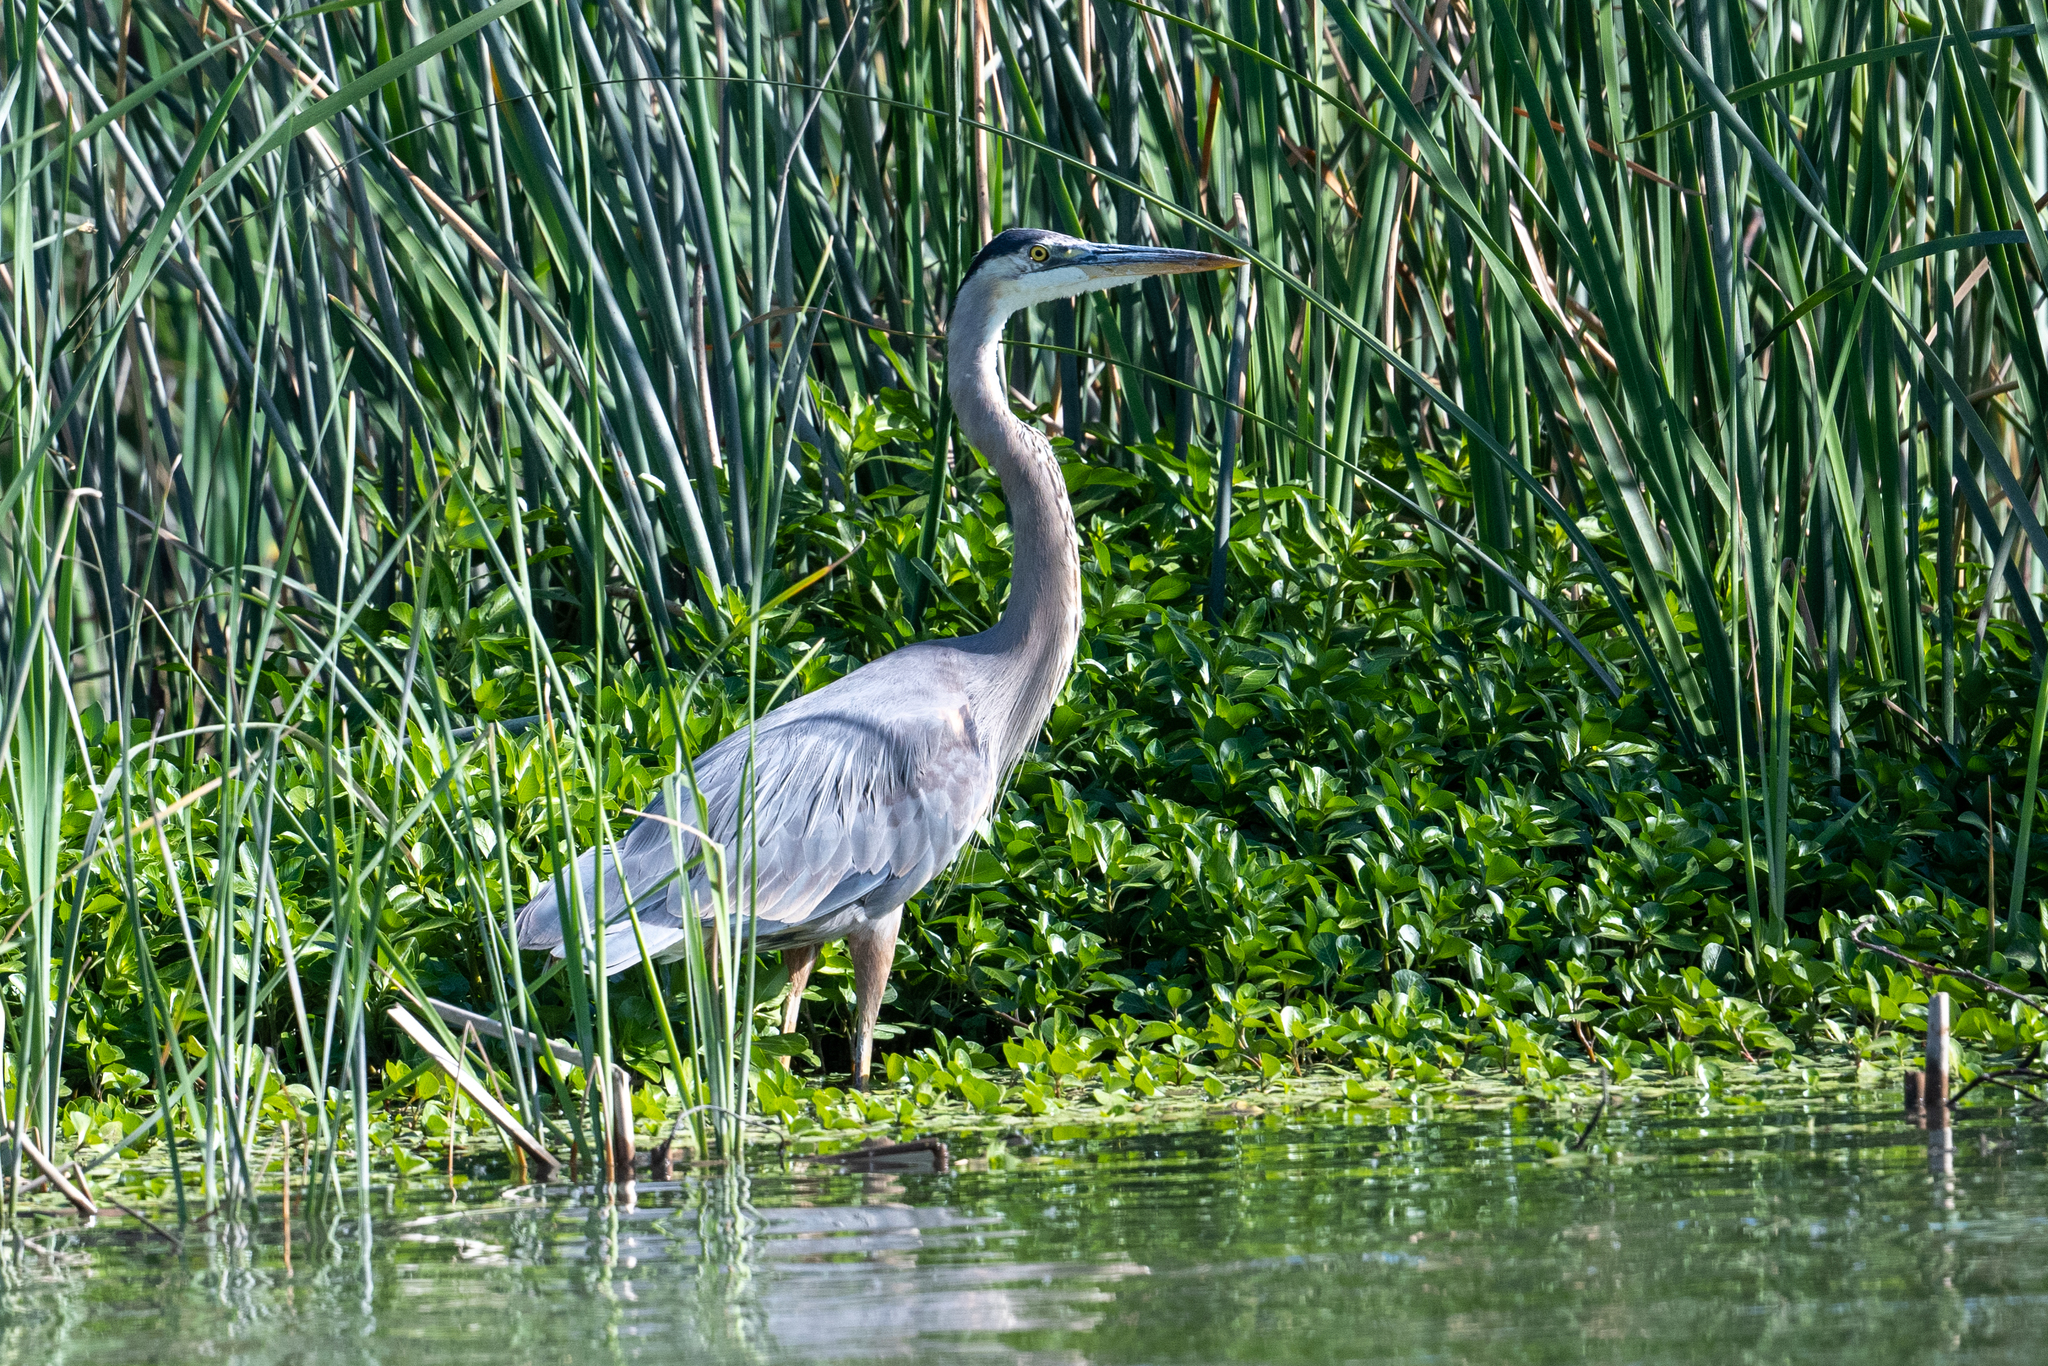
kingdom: Animalia
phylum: Chordata
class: Aves
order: Pelecaniformes
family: Ardeidae
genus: Ardea
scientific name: Ardea herodias
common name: Great blue heron
